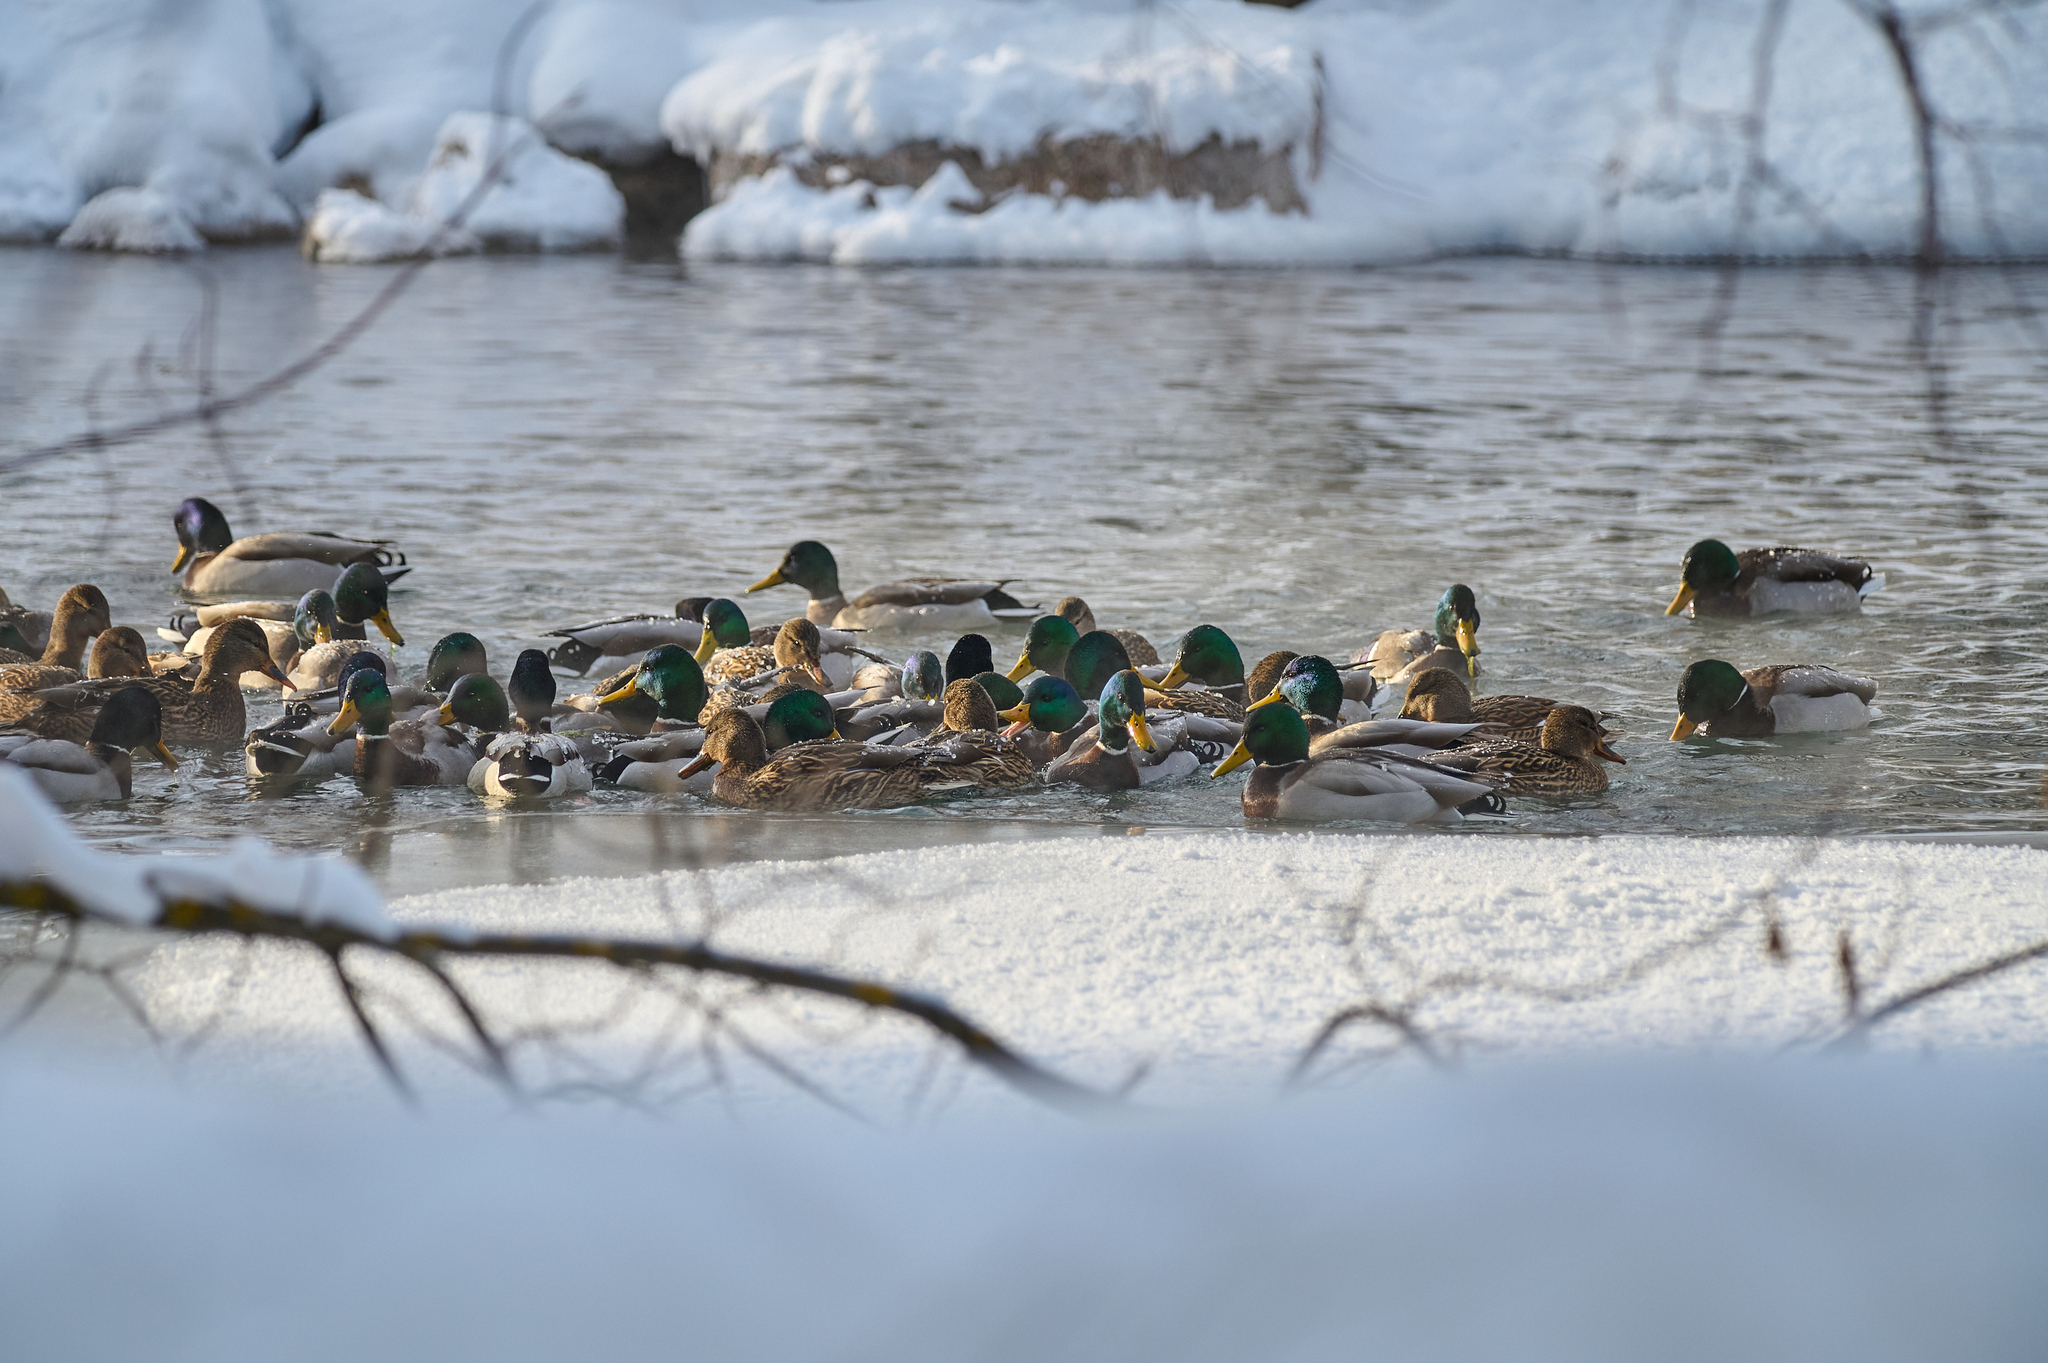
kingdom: Animalia
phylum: Chordata
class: Aves
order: Anseriformes
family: Anatidae
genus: Anas
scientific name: Anas platyrhynchos
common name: Mallard
